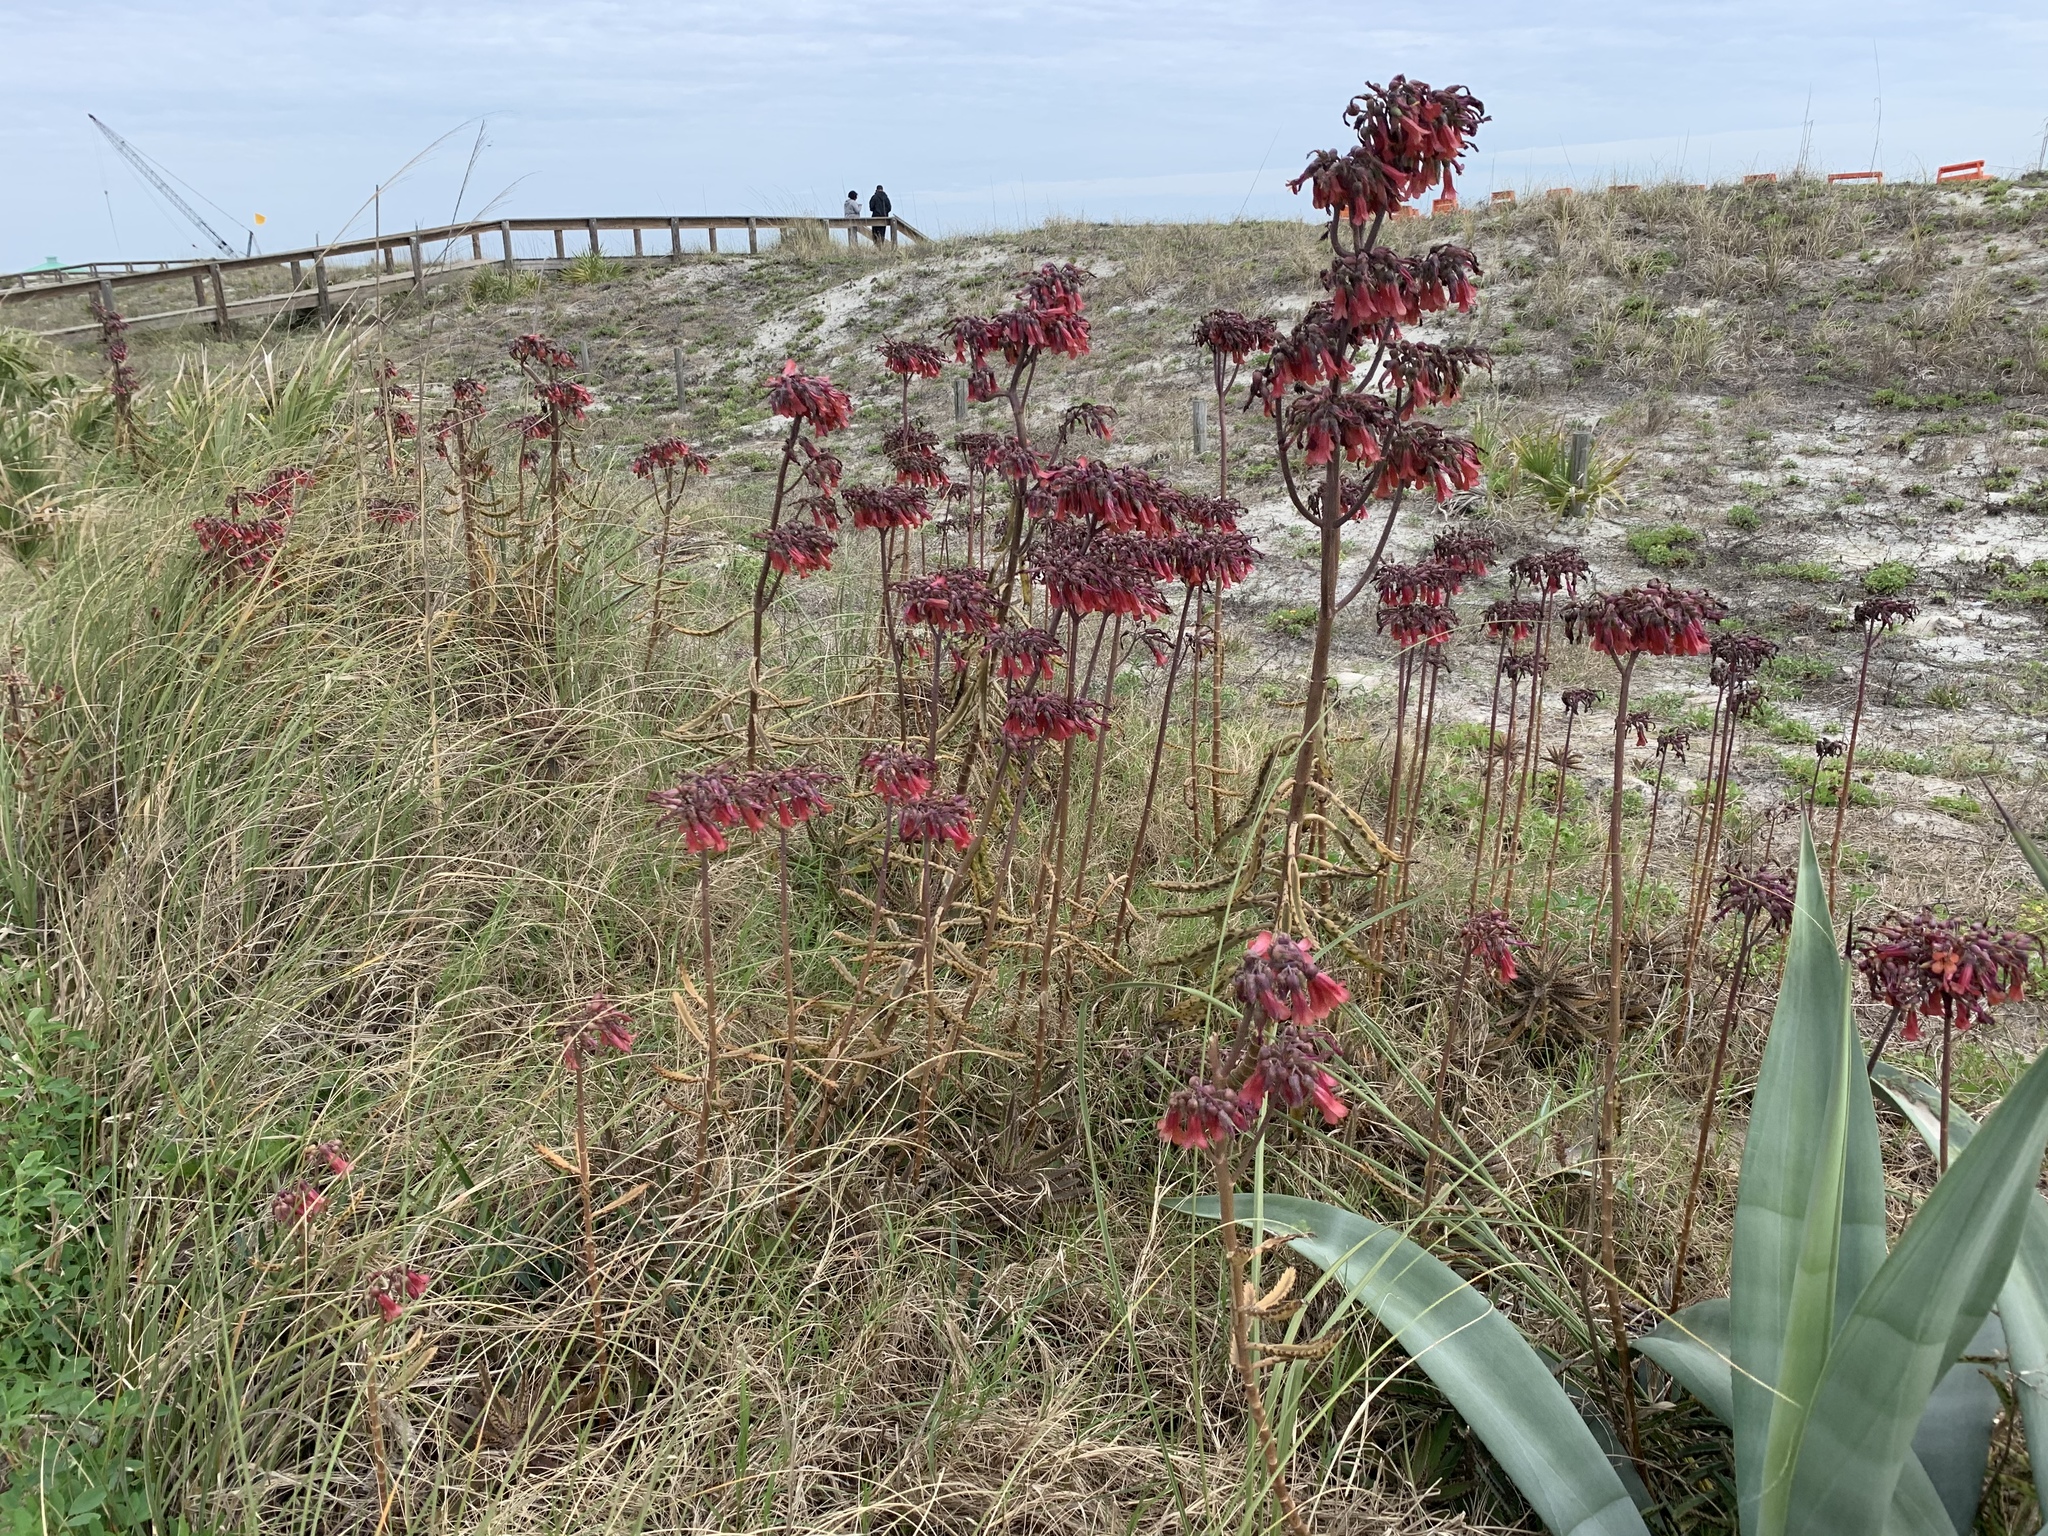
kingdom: Plantae
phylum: Tracheophyta
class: Magnoliopsida
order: Saxifragales
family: Crassulaceae
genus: Kalanchoe
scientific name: Kalanchoe houghtonii
